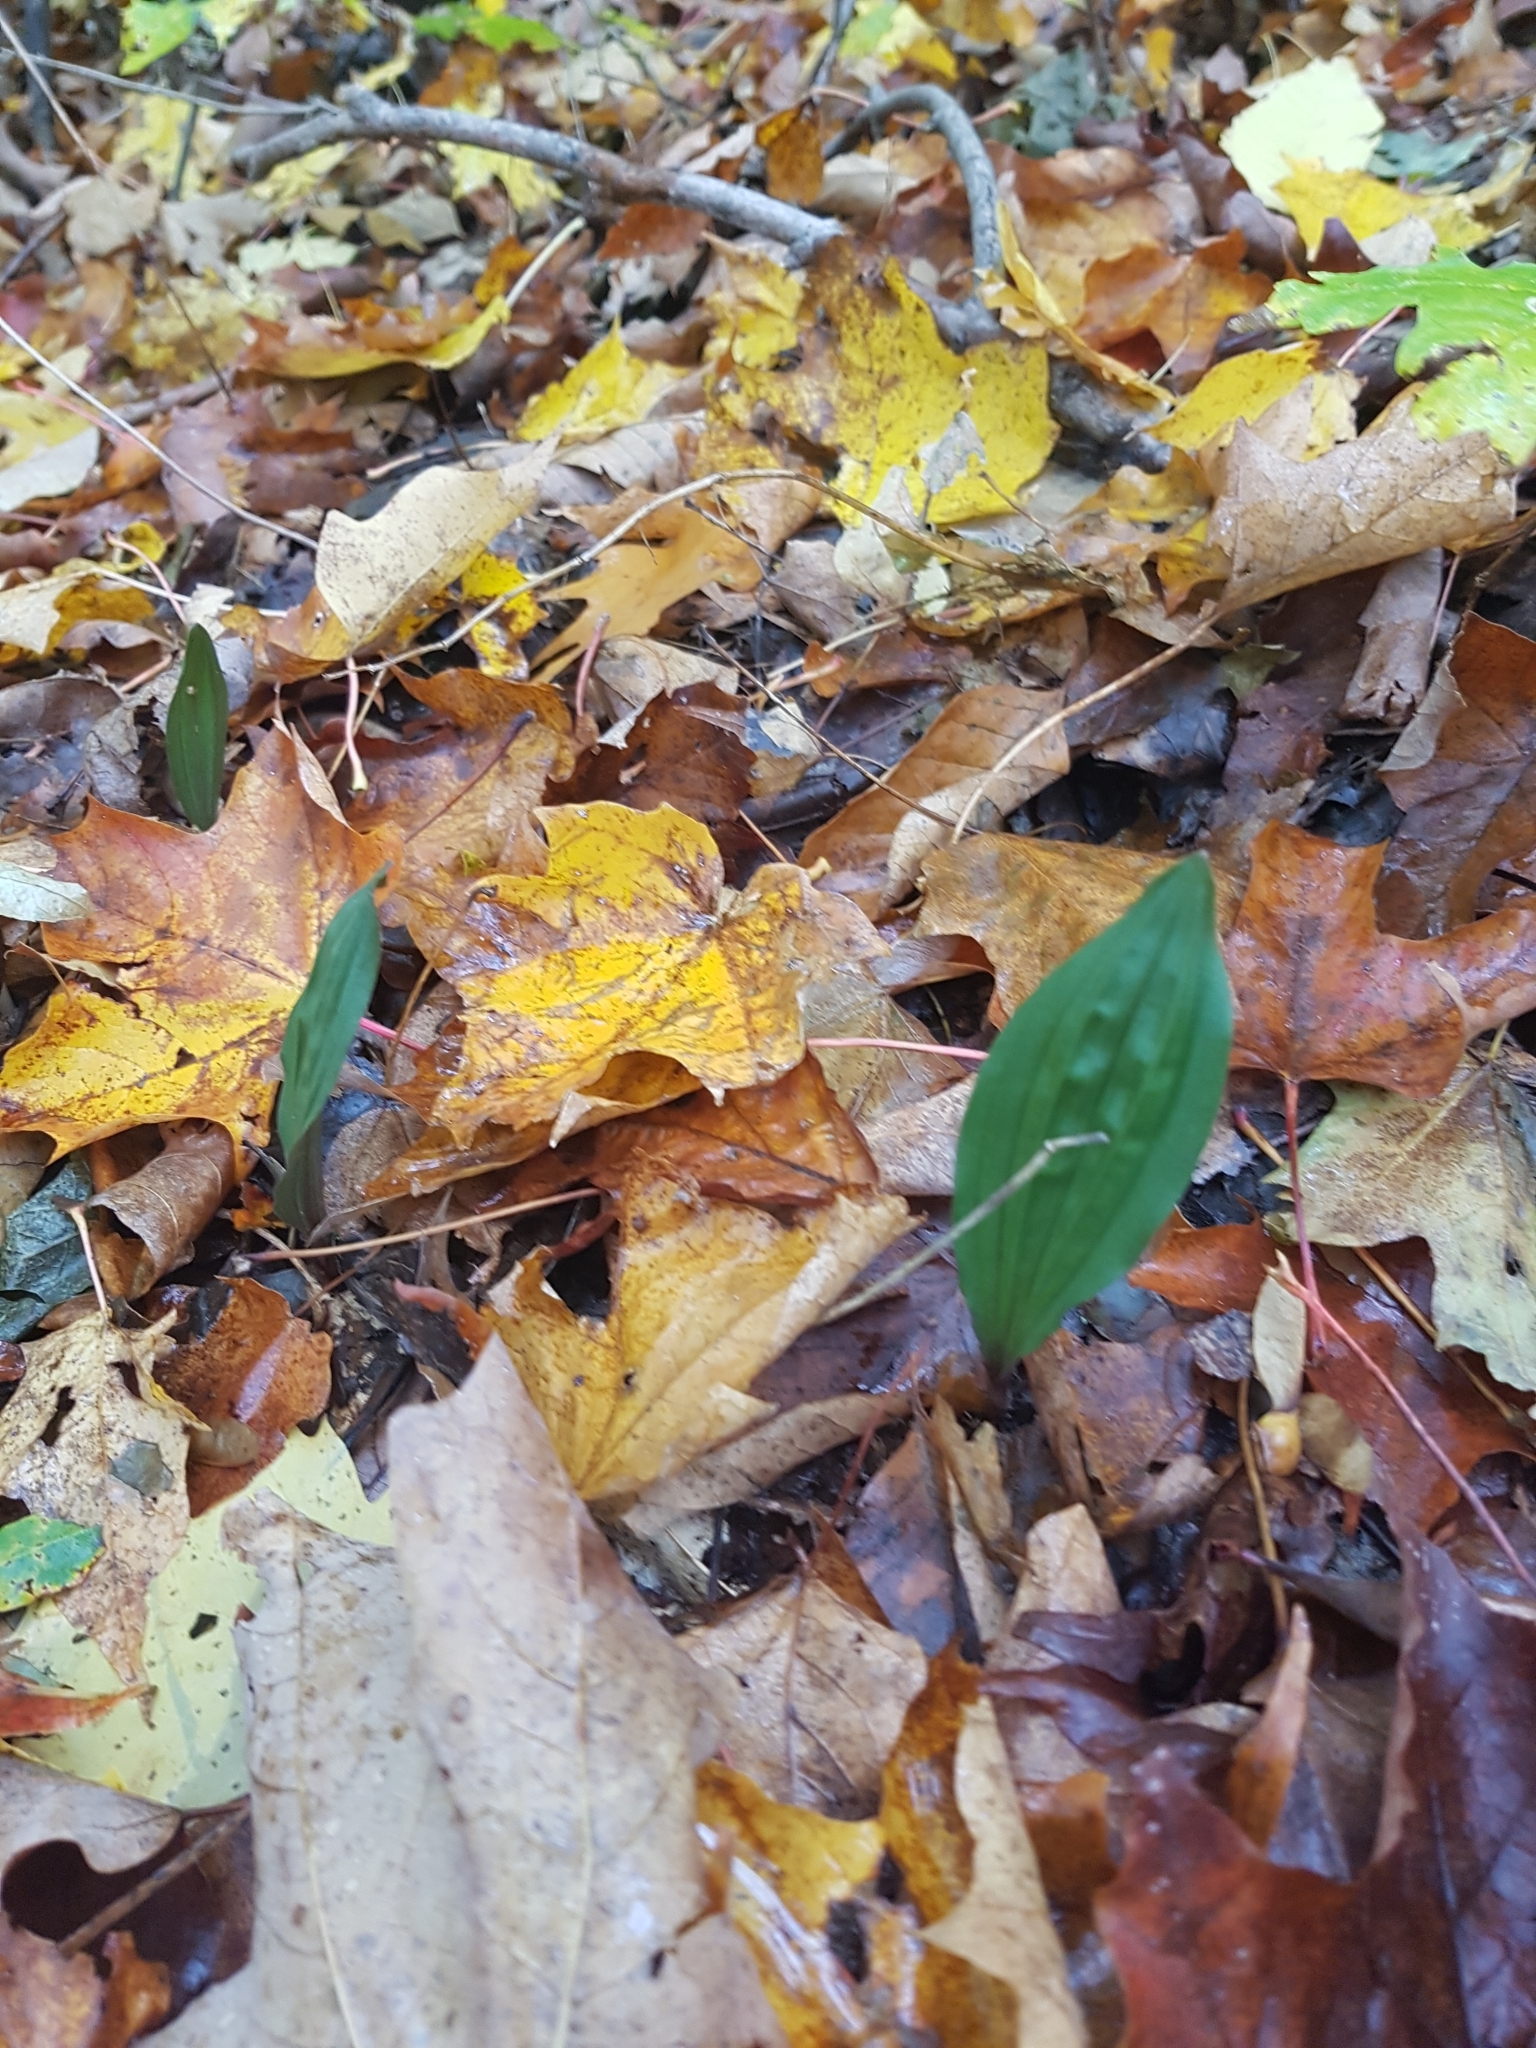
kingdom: Plantae
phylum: Tracheophyta
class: Liliopsida
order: Asparagales
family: Orchidaceae
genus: Aplectrum
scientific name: Aplectrum hyemale
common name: Adam-and-eve
